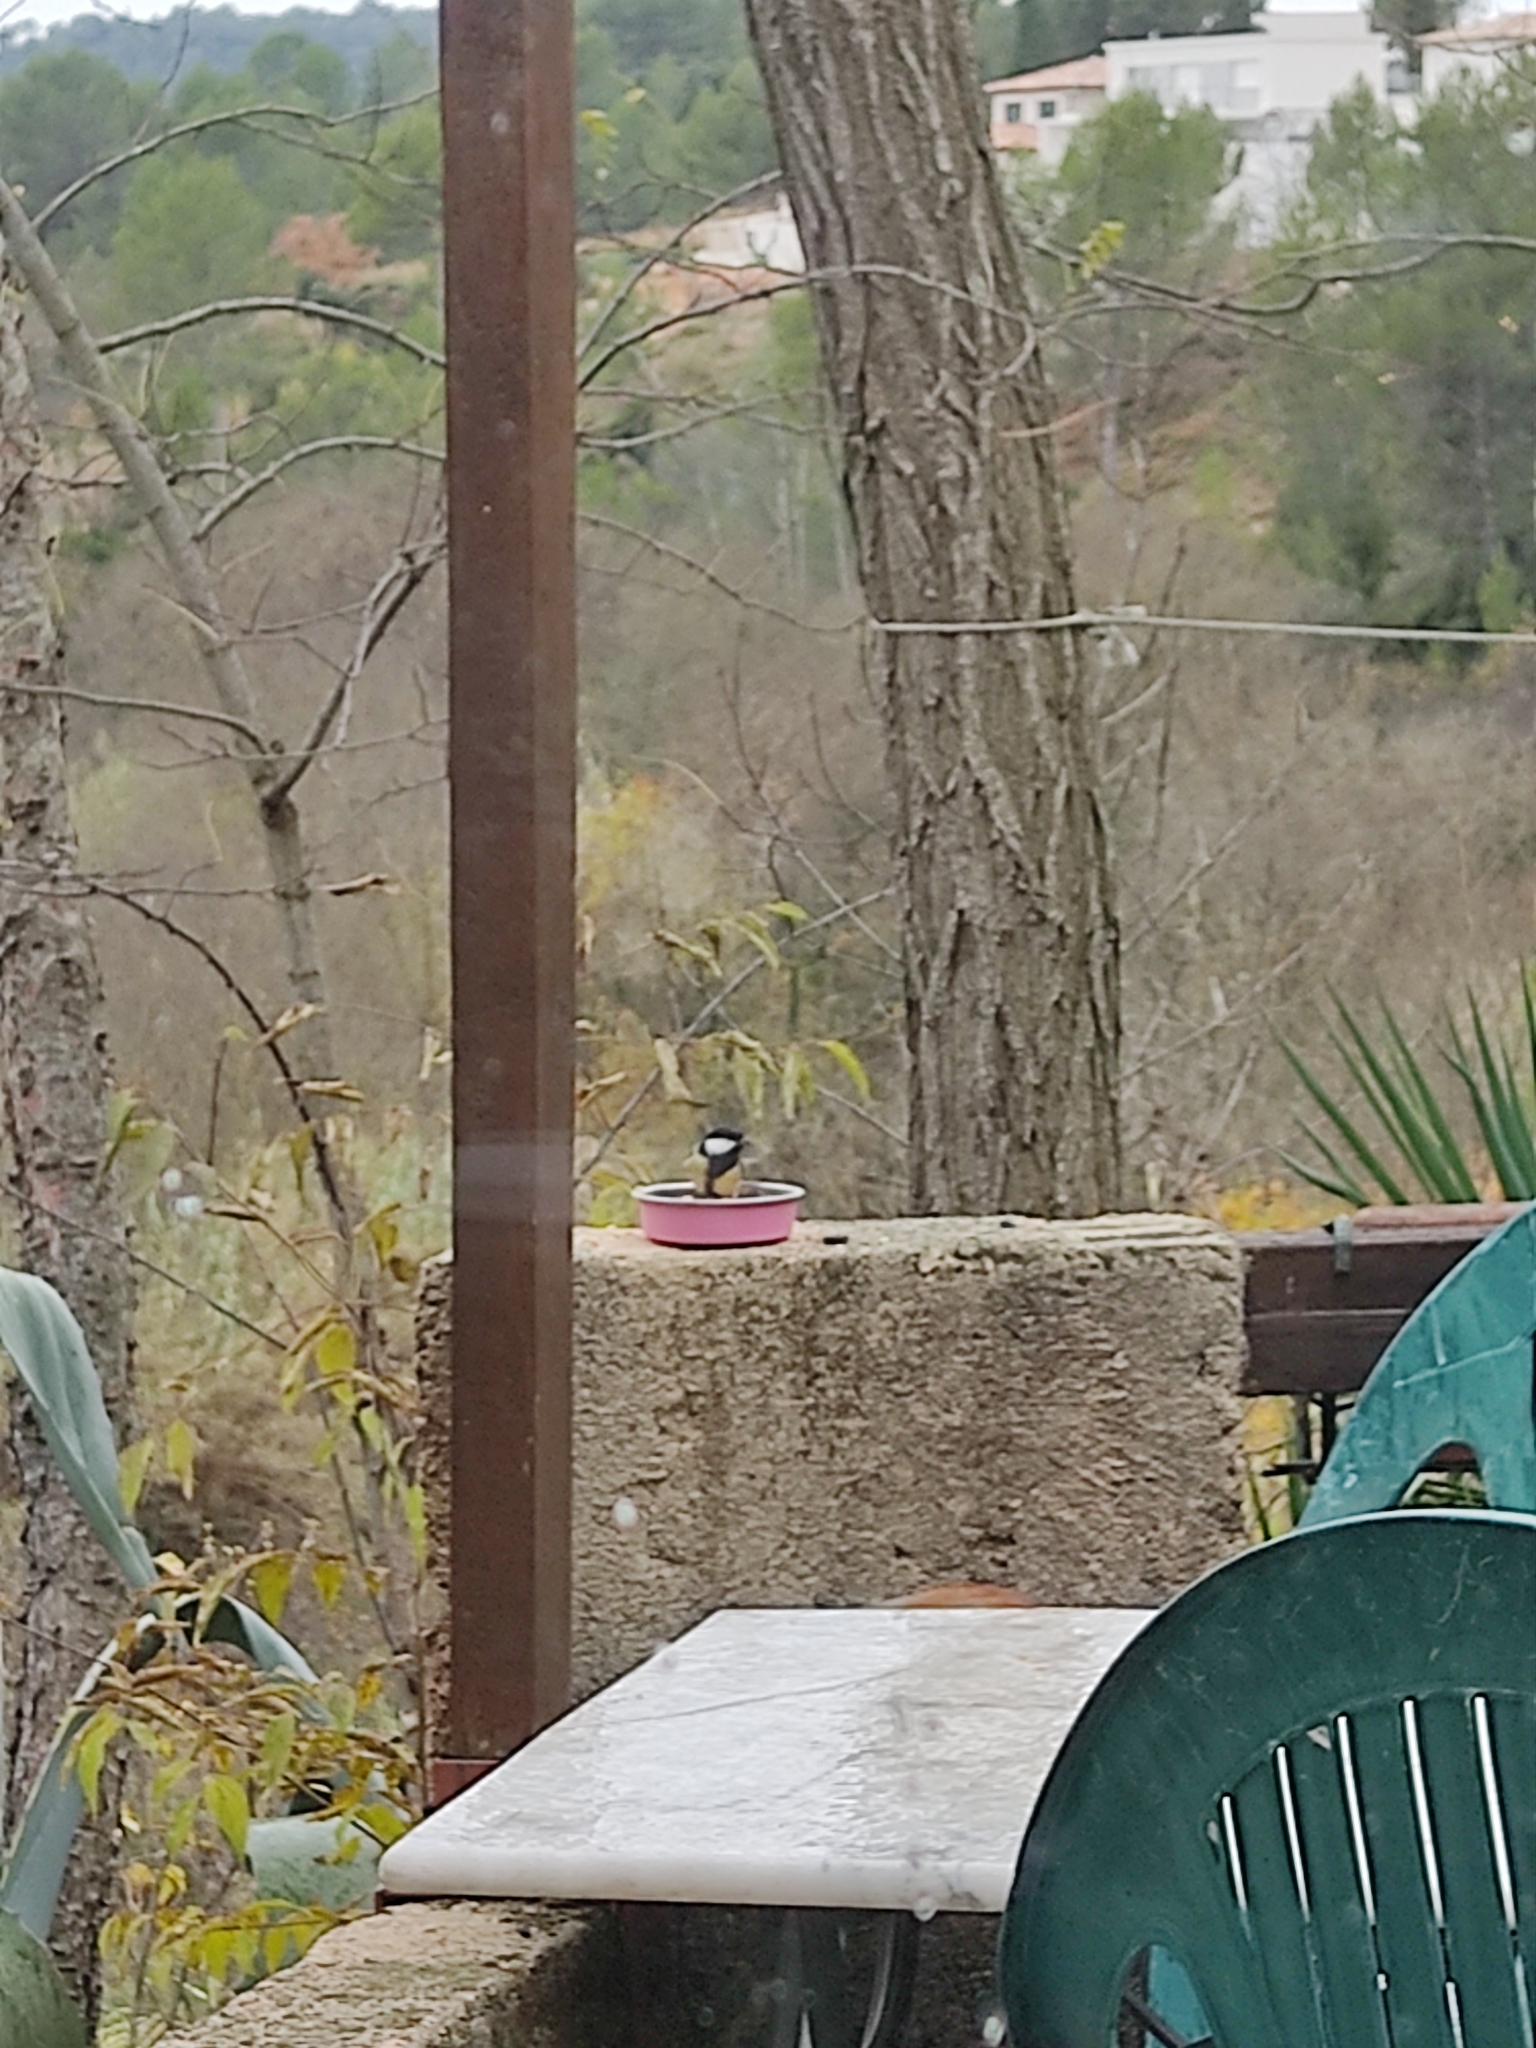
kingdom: Animalia
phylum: Chordata
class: Aves
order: Passeriformes
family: Paridae
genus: Parus
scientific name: Parus major
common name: Great tit
